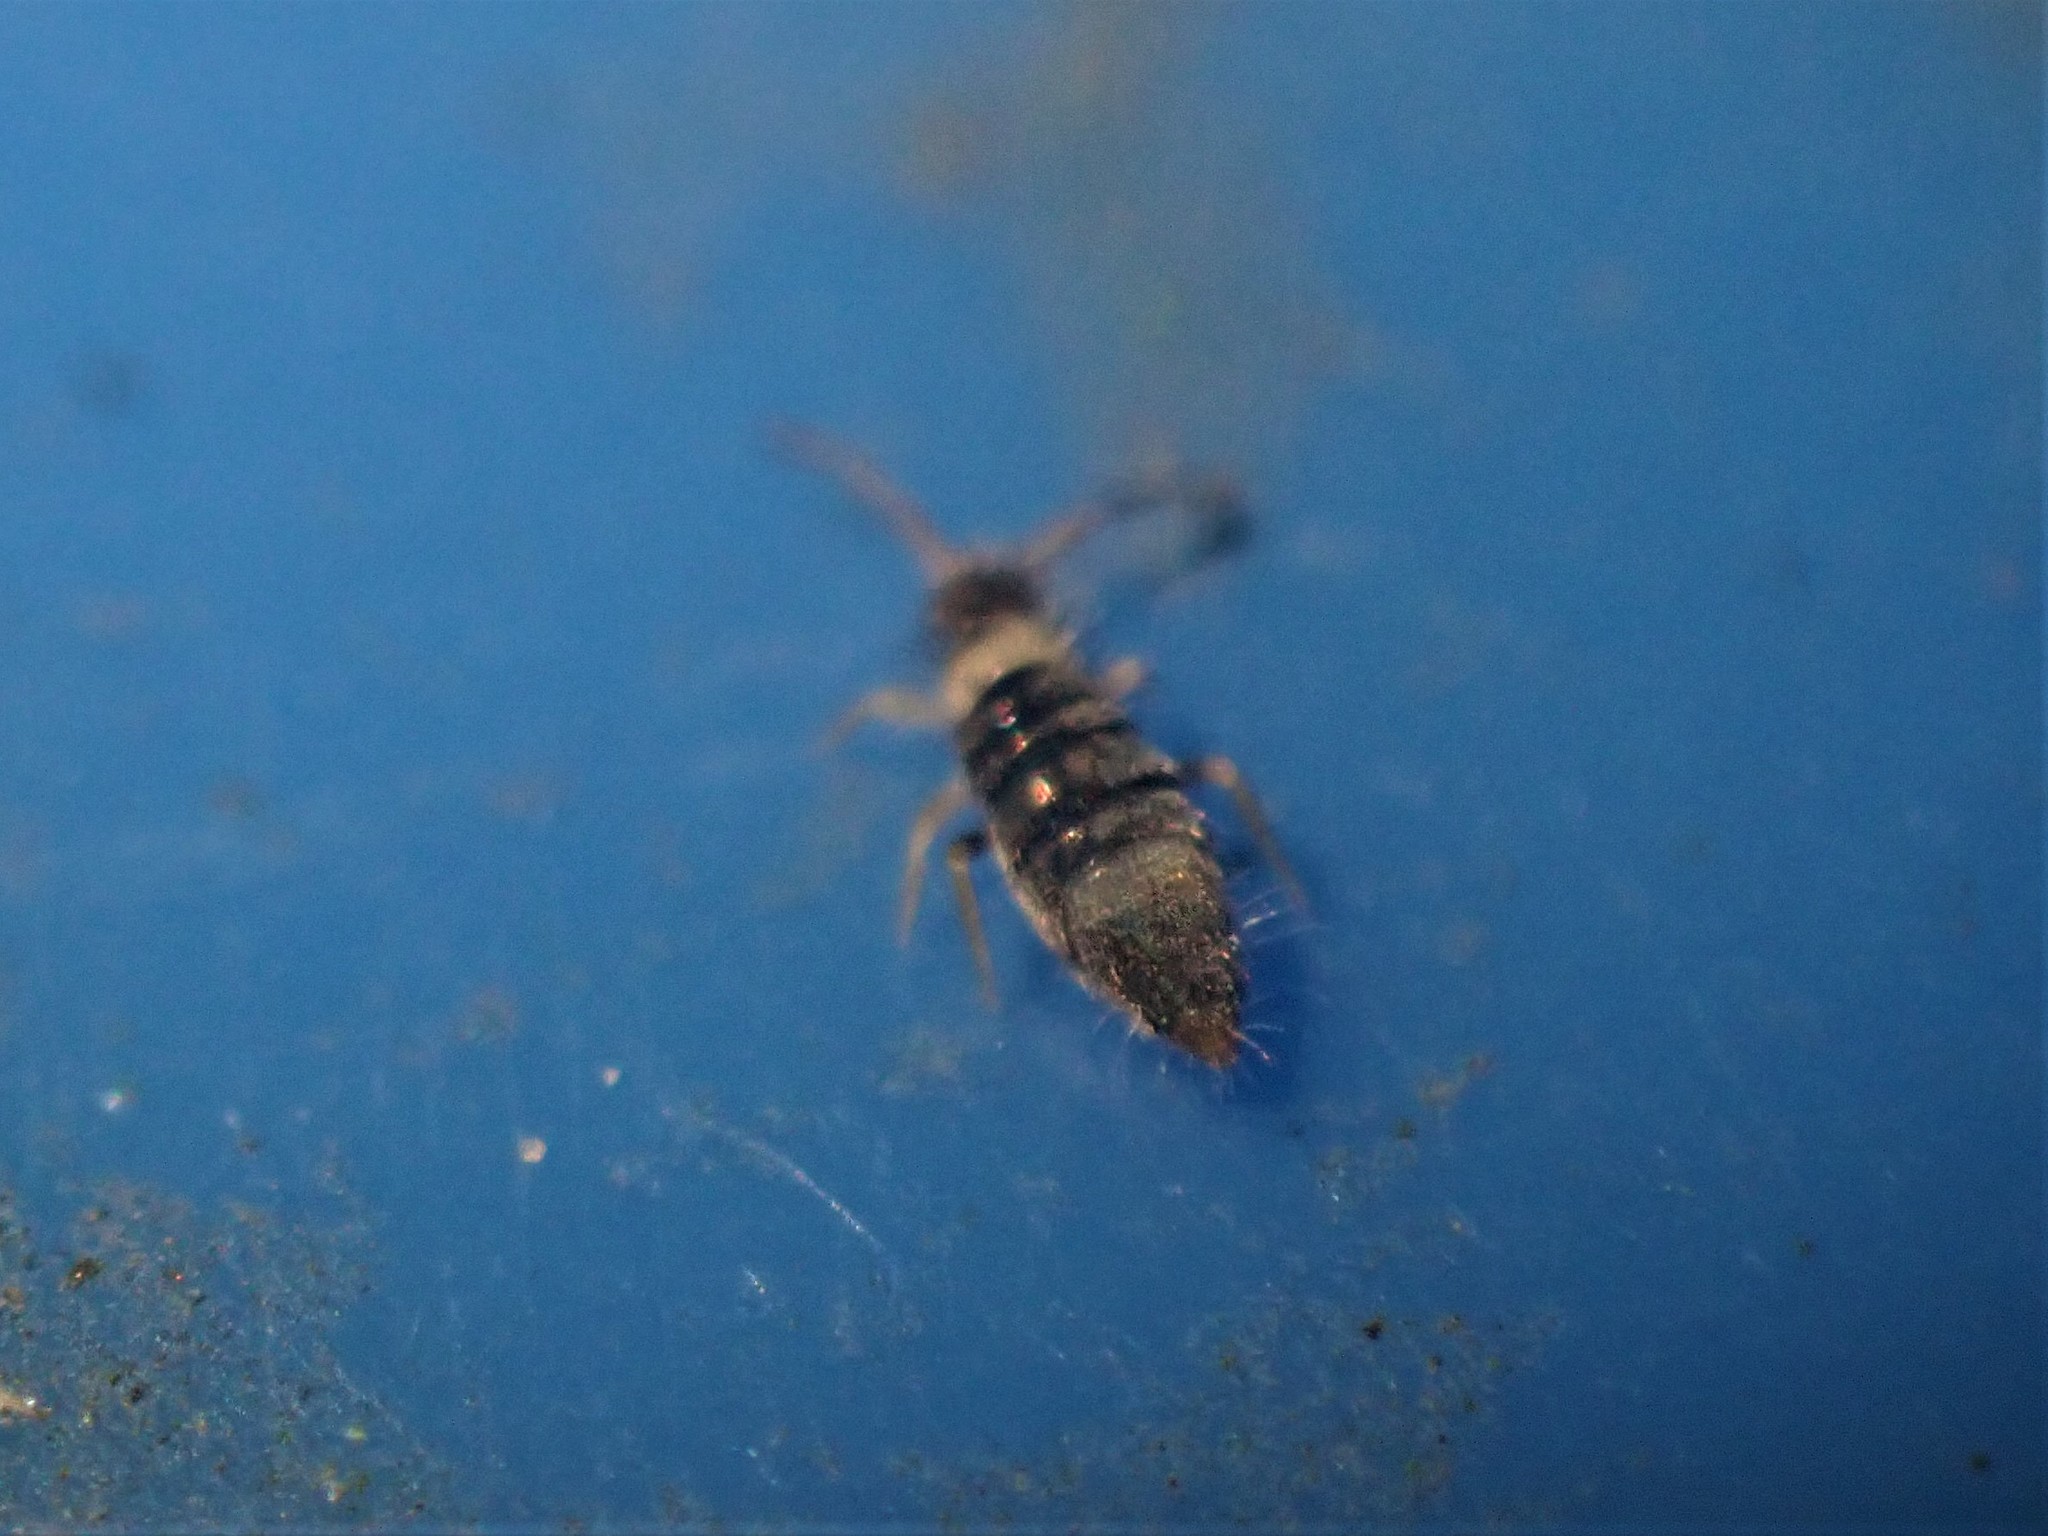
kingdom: Animalia
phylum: Arthropoda
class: Collembola
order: Entomobryomorpha
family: Entomobryidae
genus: Entomobrya
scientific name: Entomobrya albocincta
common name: Springtail
